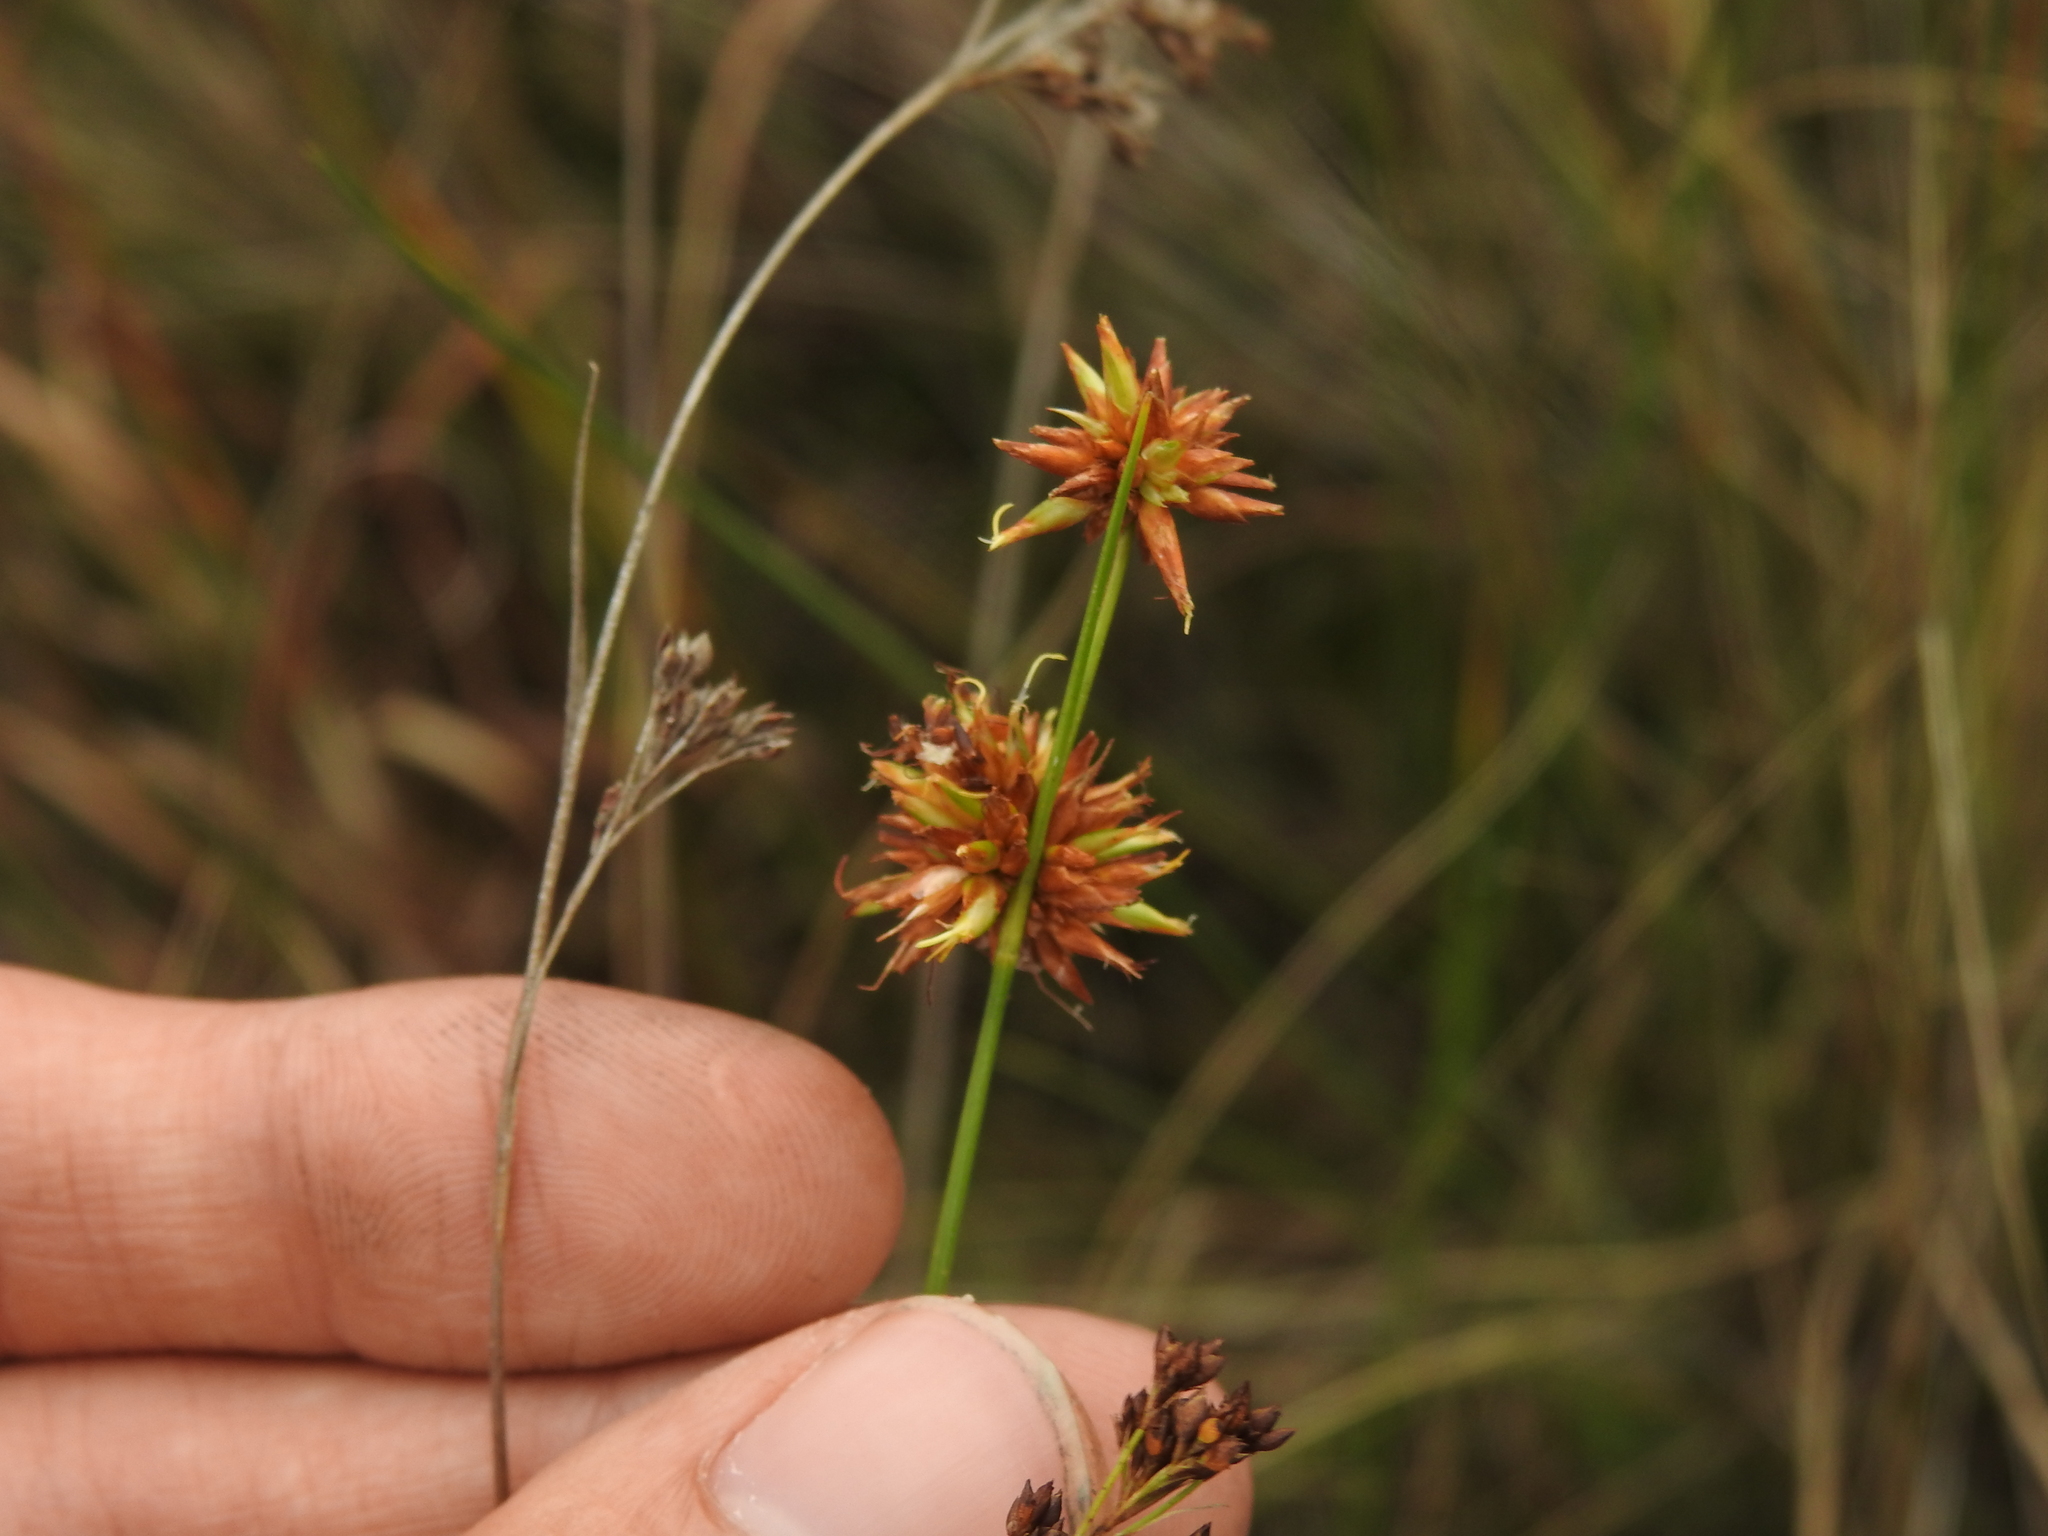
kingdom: Plantae
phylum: Tracheophyta
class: Liliopsida
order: Poales
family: Cyperaceae
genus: Rhynchospora
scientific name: Rhynchospora tracyi
